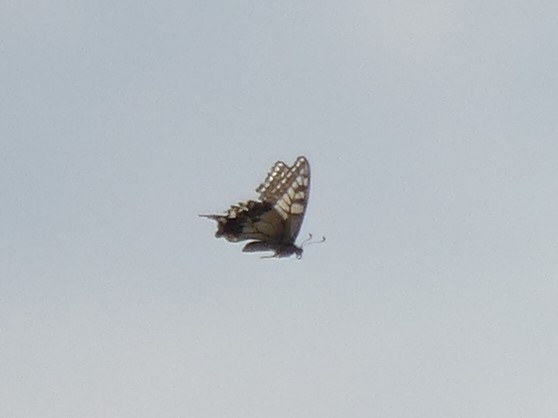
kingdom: Animalia
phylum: Arthropoda
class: Insecta
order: Lepidoptera
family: Papilionidae
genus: Papilio
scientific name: Papilio machaon
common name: Swallowtail
